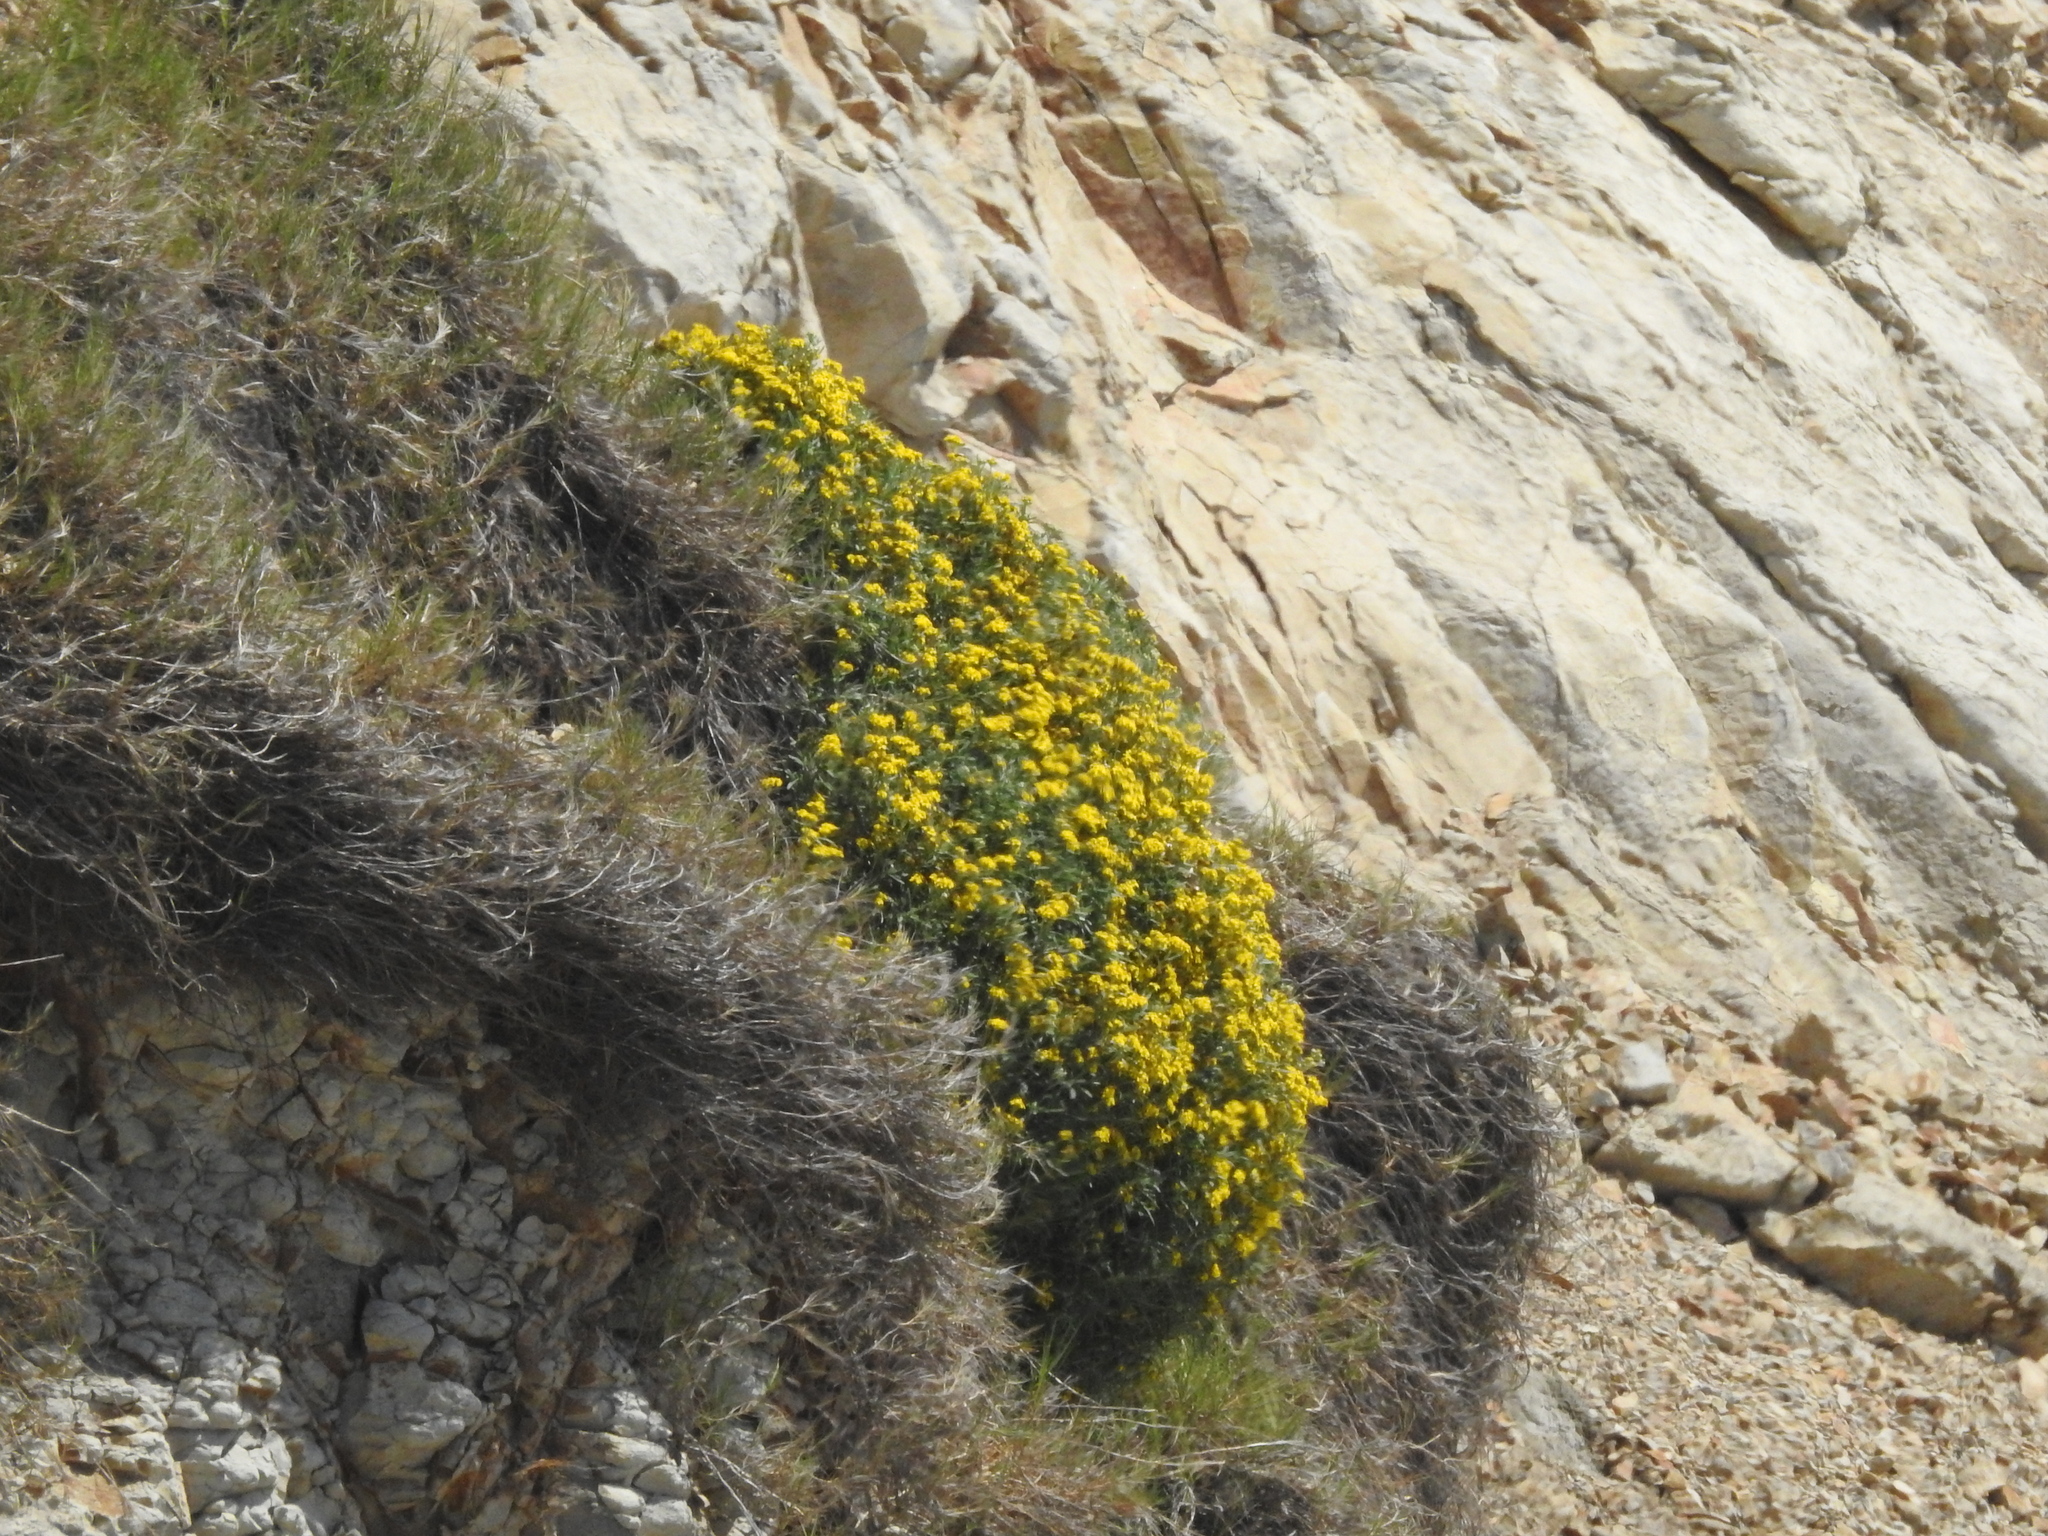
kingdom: Plantae
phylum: Tracheophyta
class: Magnoliopsida
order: Asterales
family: Asteraceae
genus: Eriophyllum
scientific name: Eriophyllum staechadifolium
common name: Lizardtail
